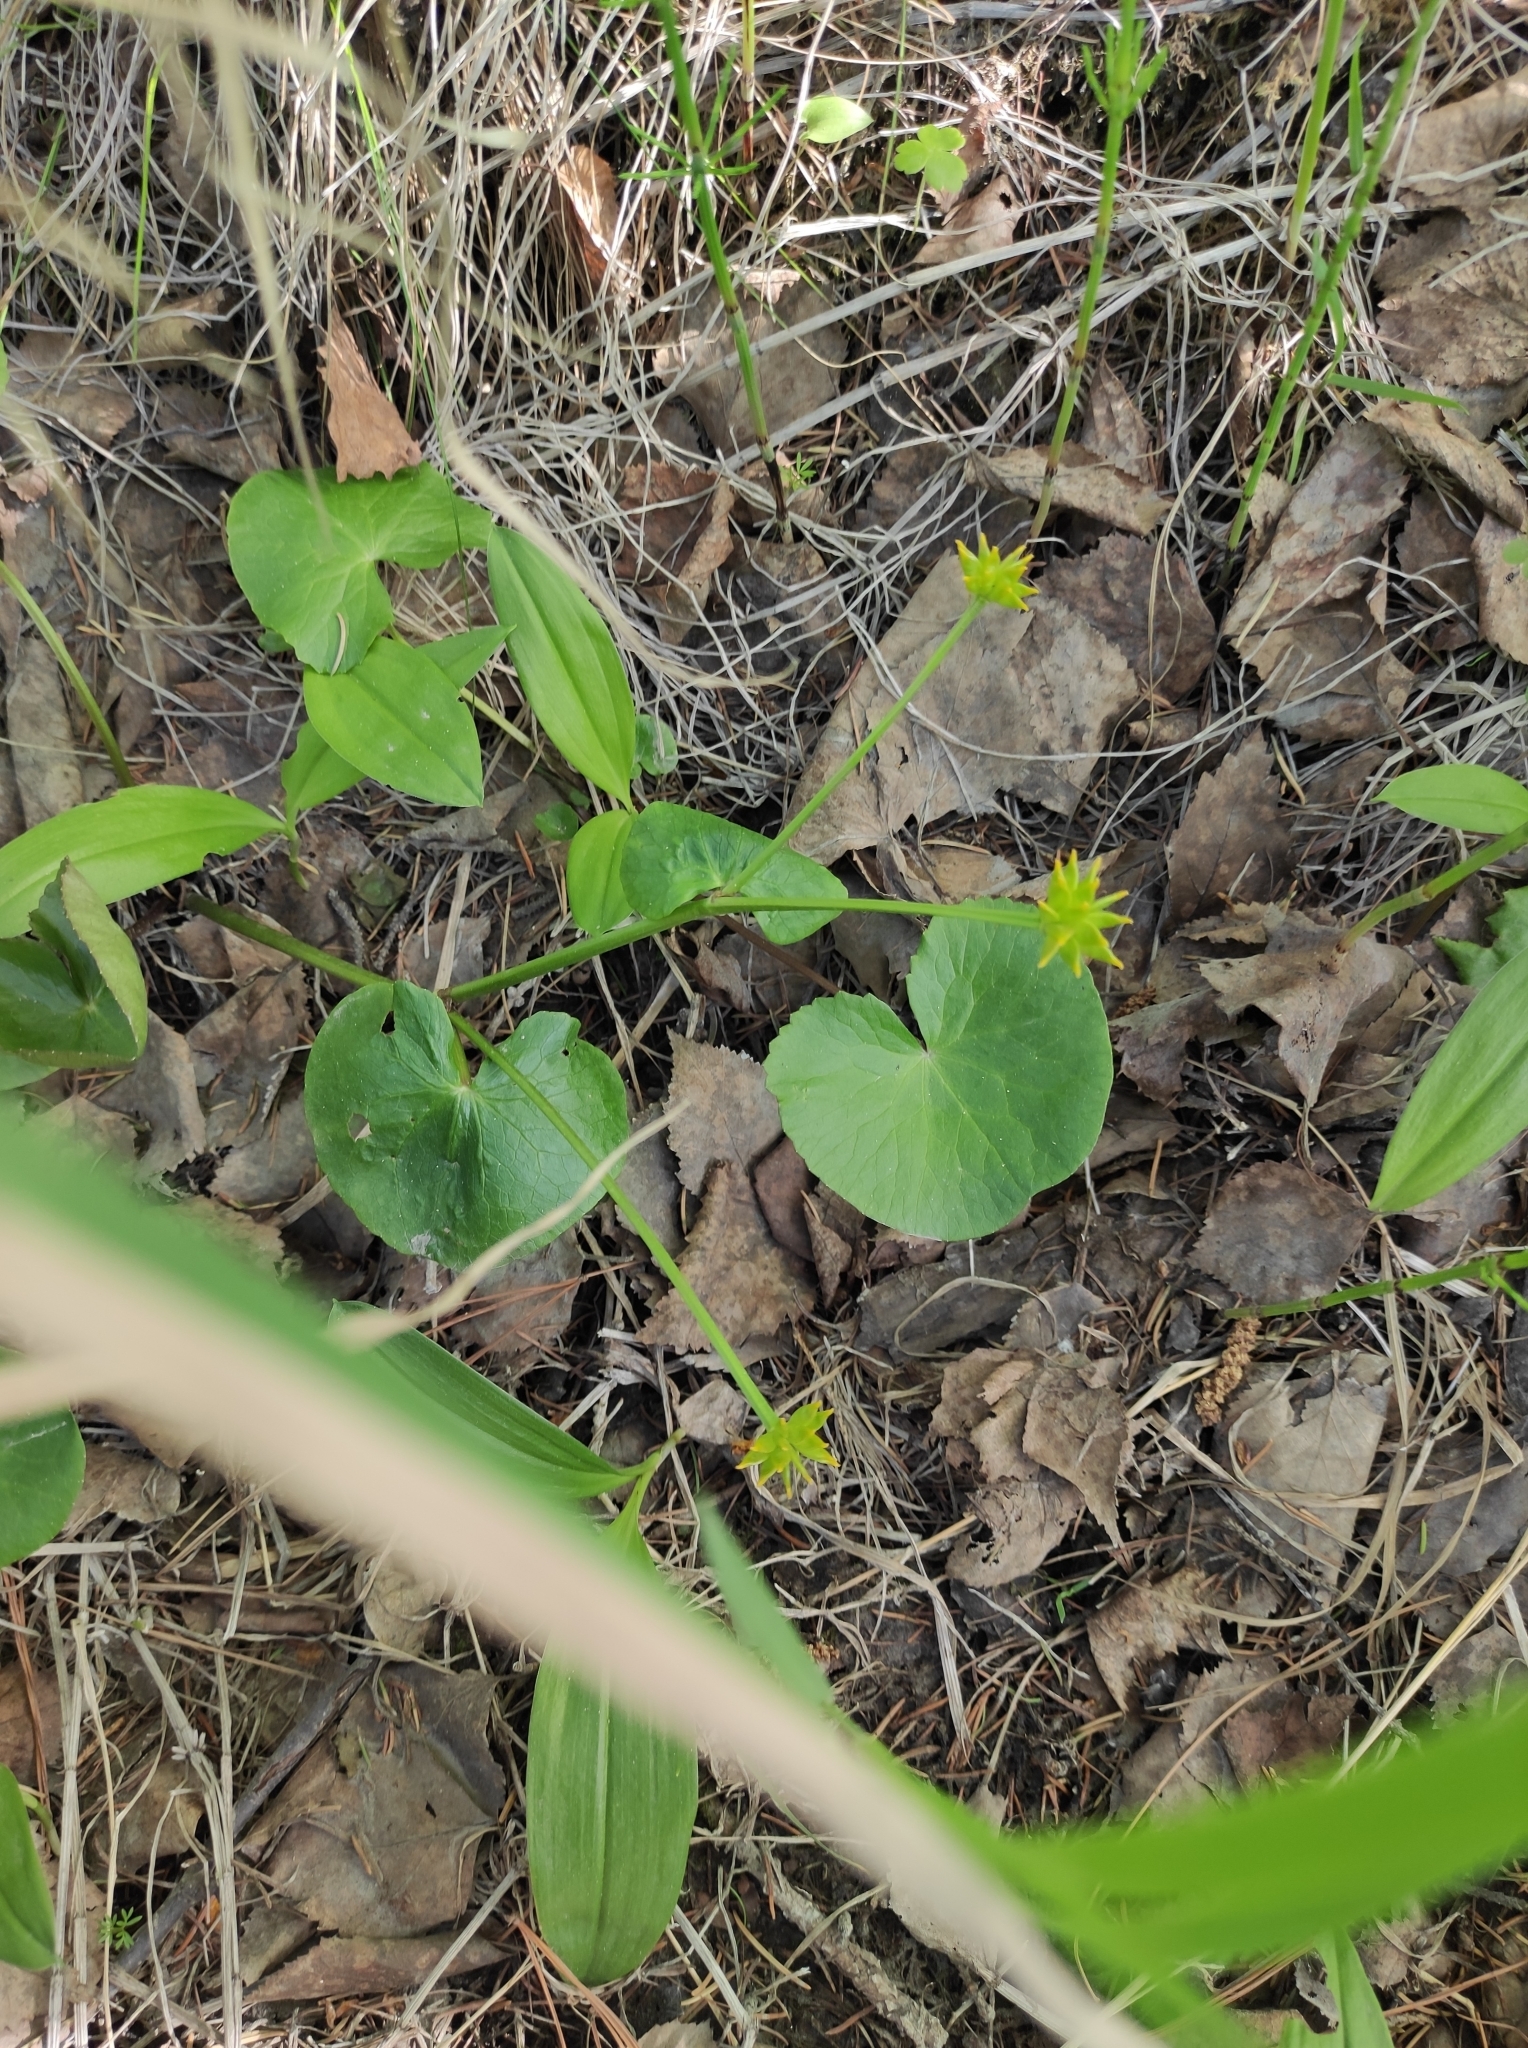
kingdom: Plantae
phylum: Tracheophyta
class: Magnoliopsida
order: Ranunculales
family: Ranunculaceae
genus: Caltha
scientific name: Caltha palustris
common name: Marsh marigold
